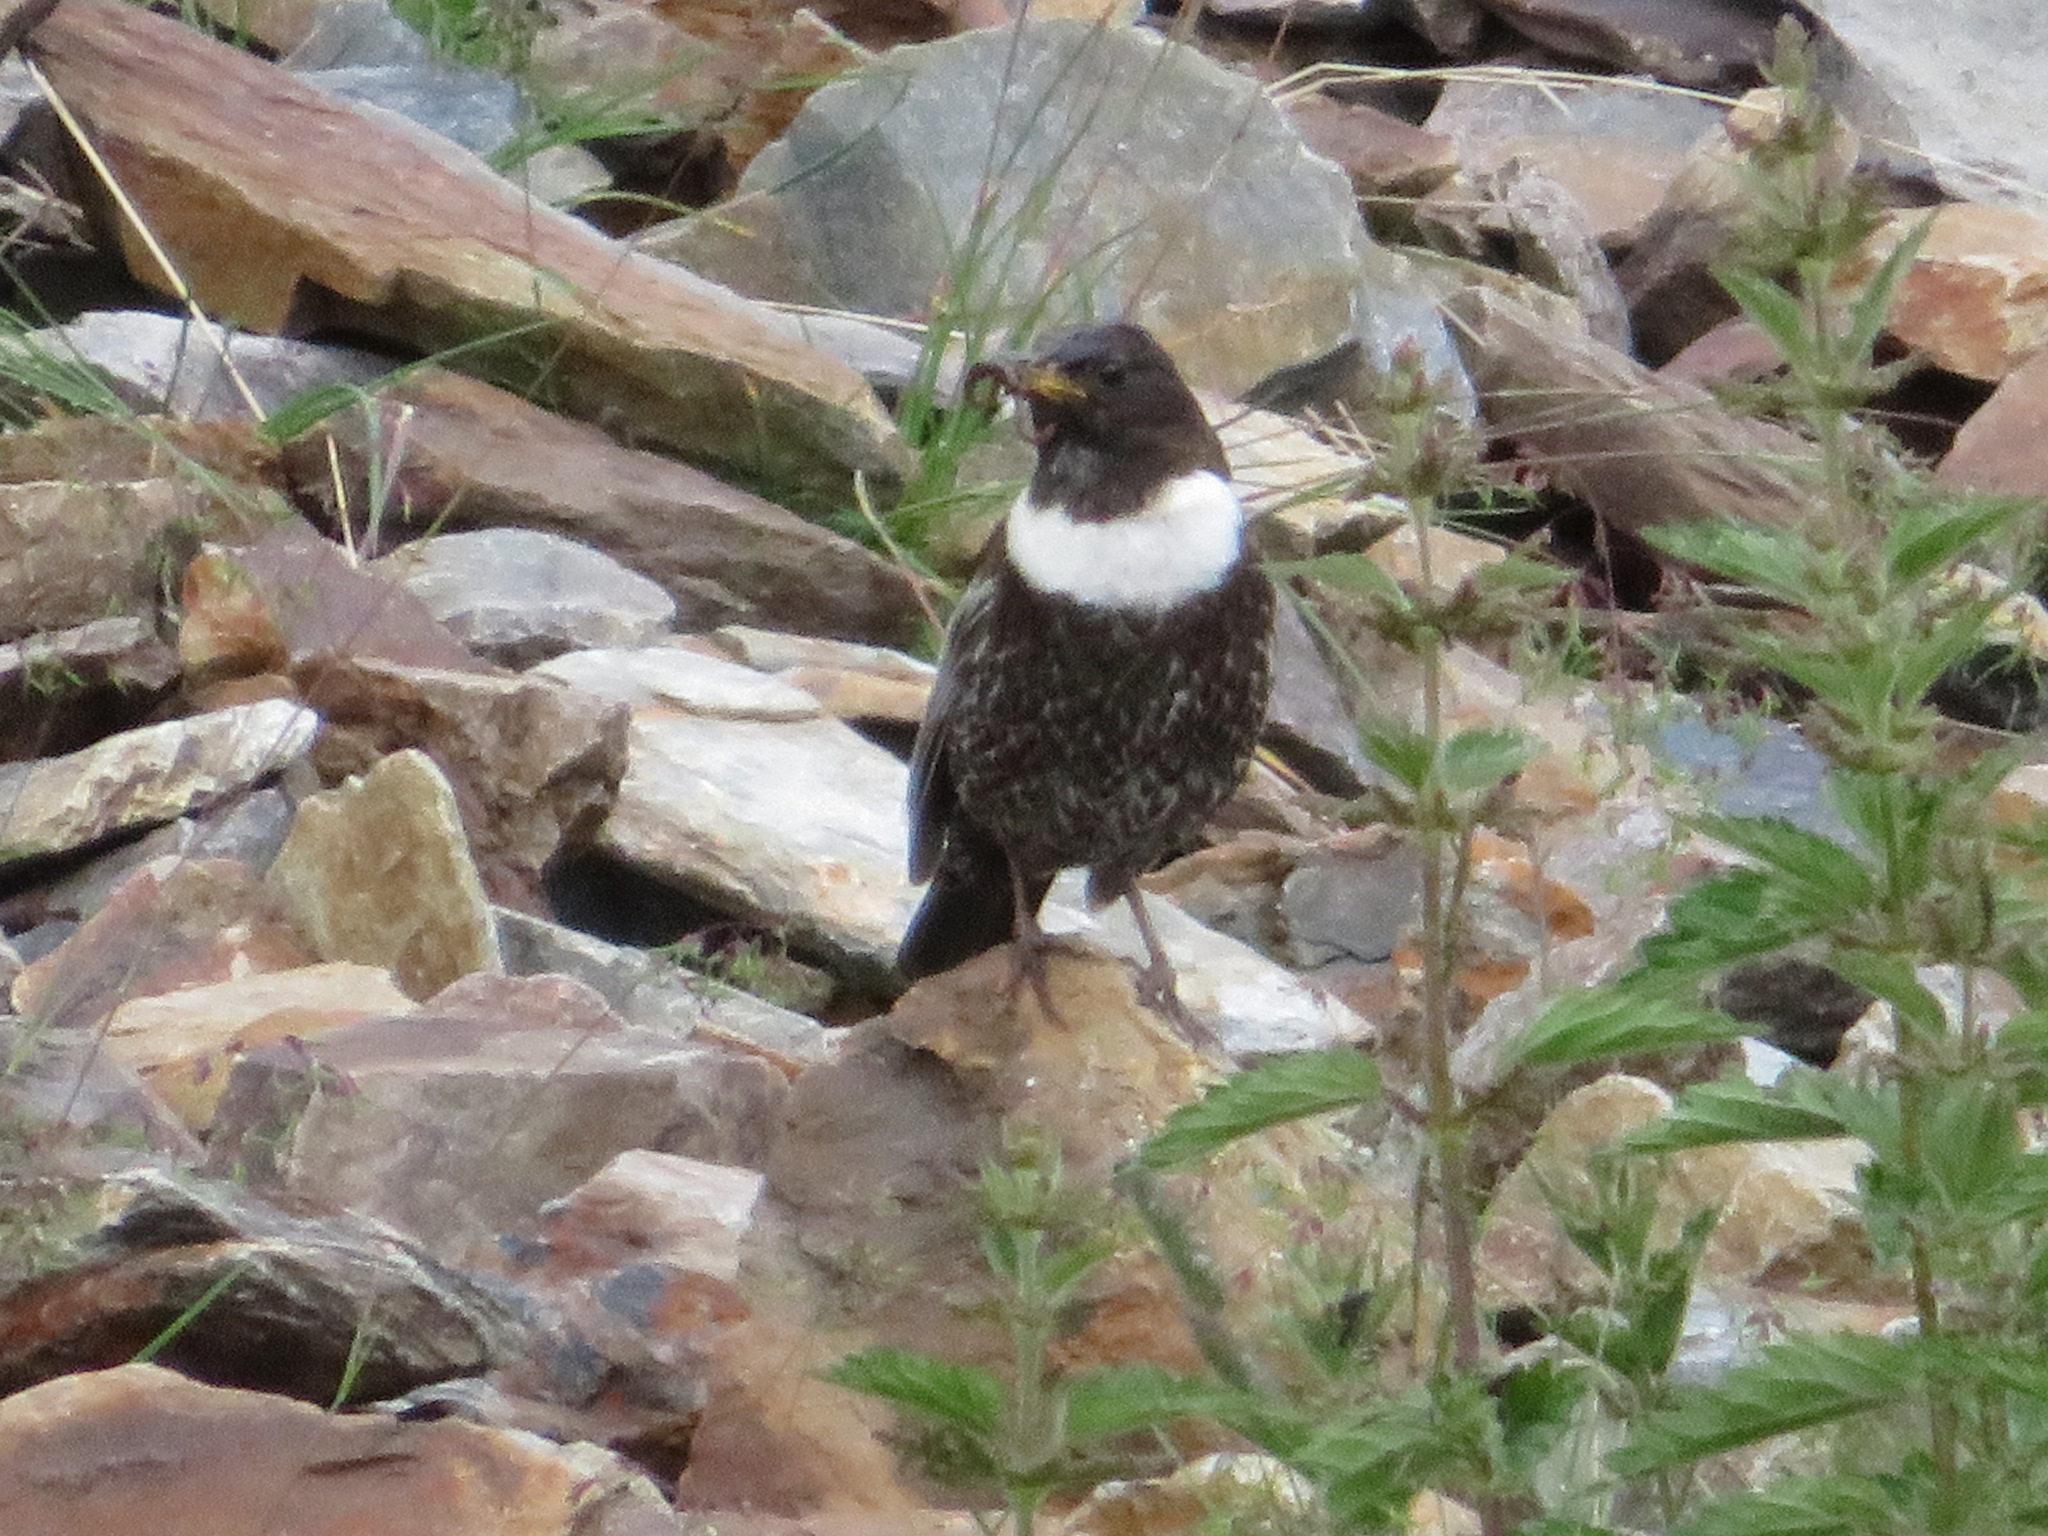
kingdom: Animalia
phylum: Chordata
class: Aves
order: Passeriformes
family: Turdidae
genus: Turdus
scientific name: Turdus torquatus
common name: Ring ouzel
